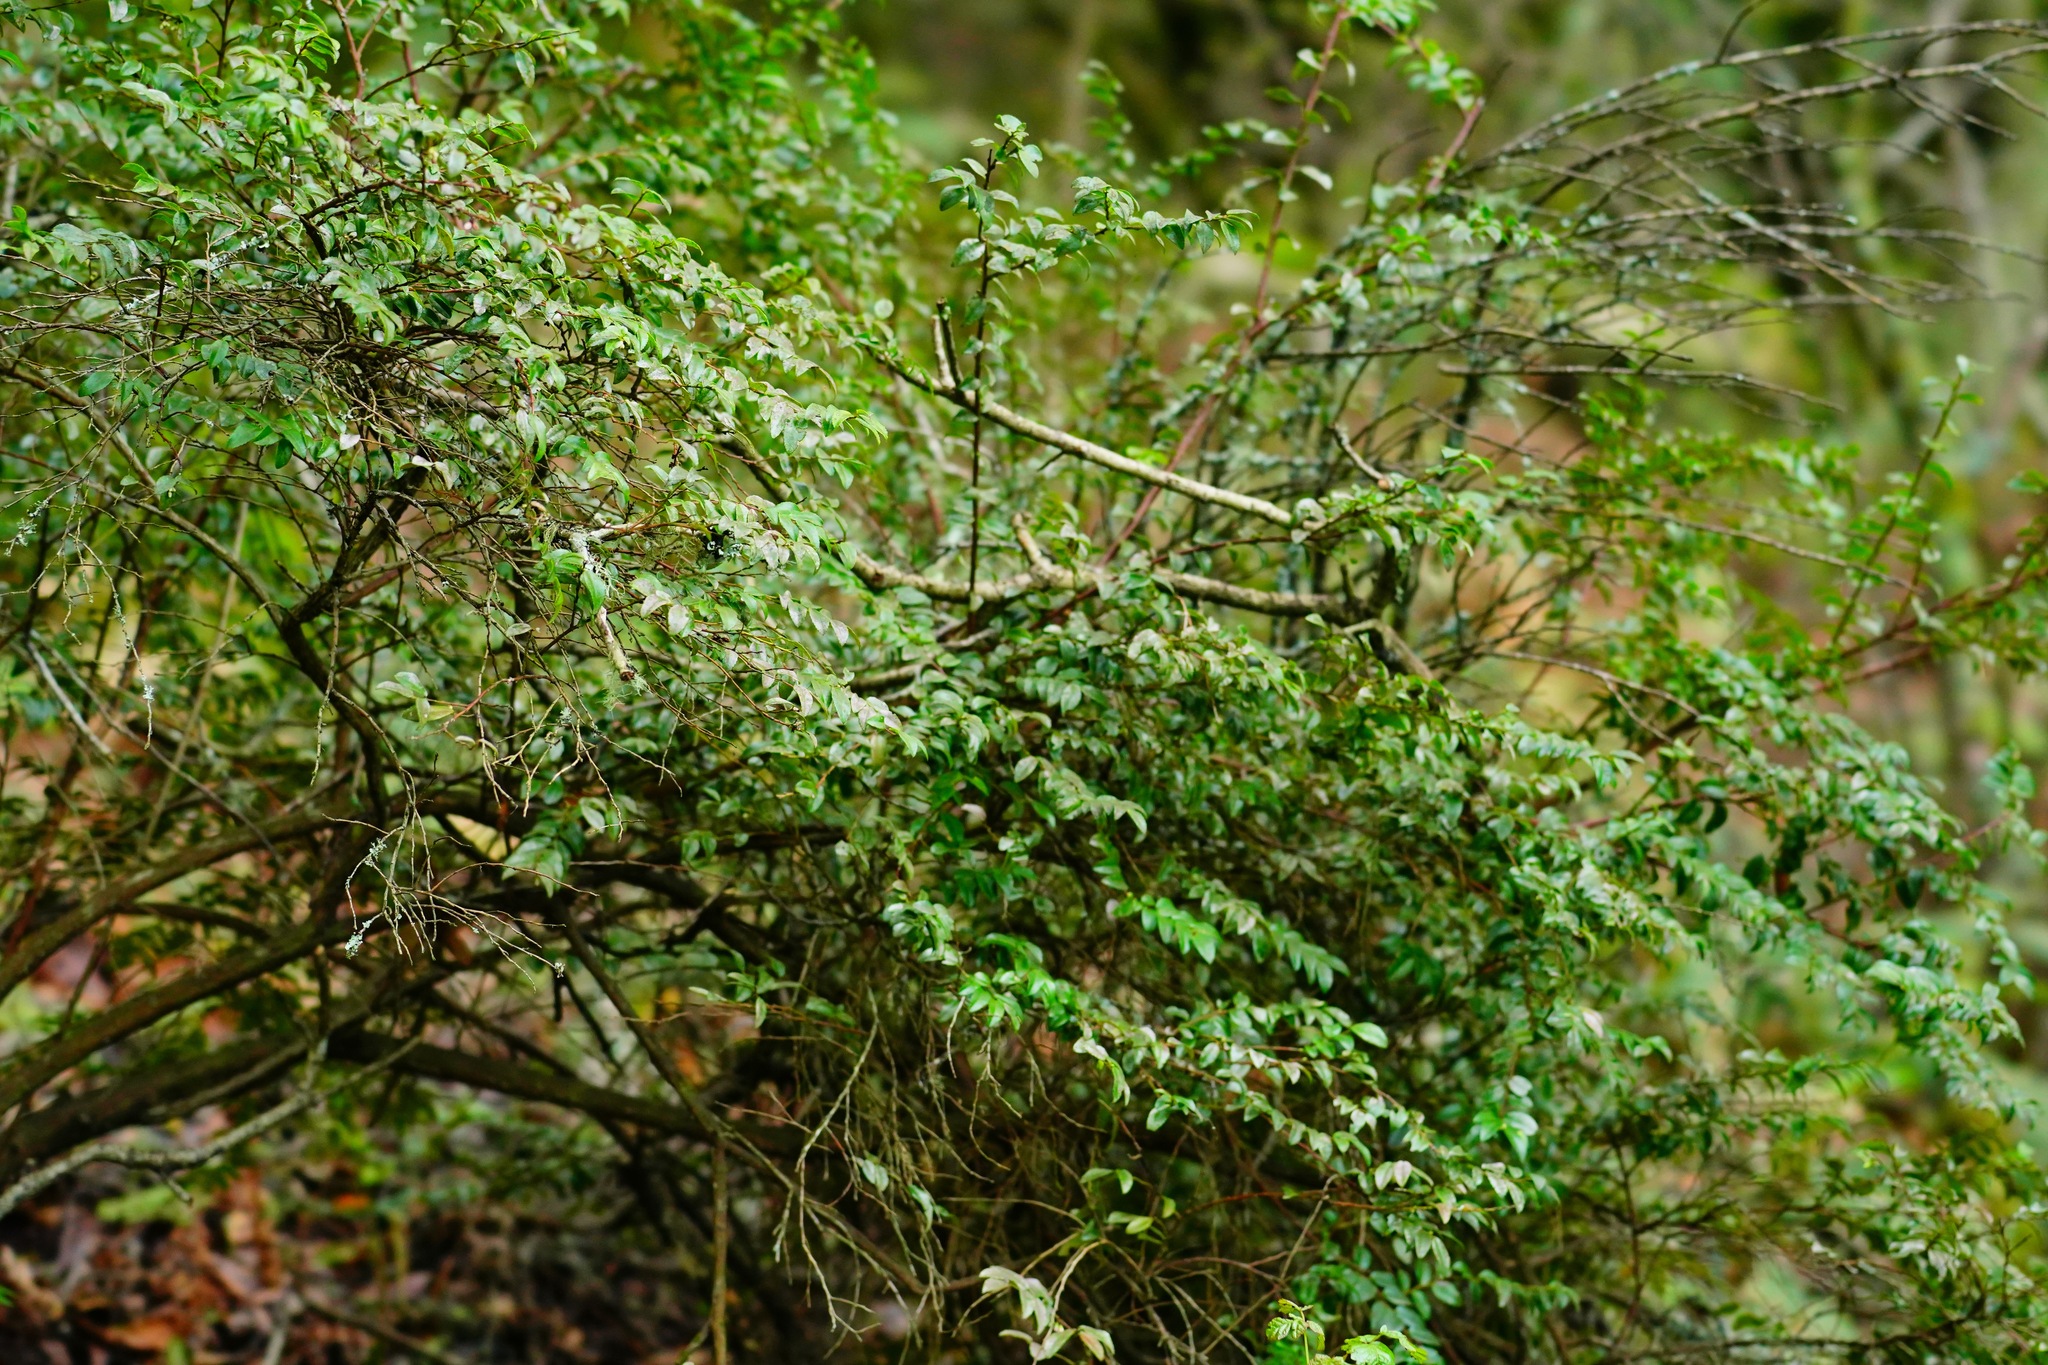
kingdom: Plantae
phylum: Tracheophyta
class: Magnoliopsida
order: Ericales
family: Ericaceae
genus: Vaccinium
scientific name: Vaccinium ovatum
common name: California-huckleberry
